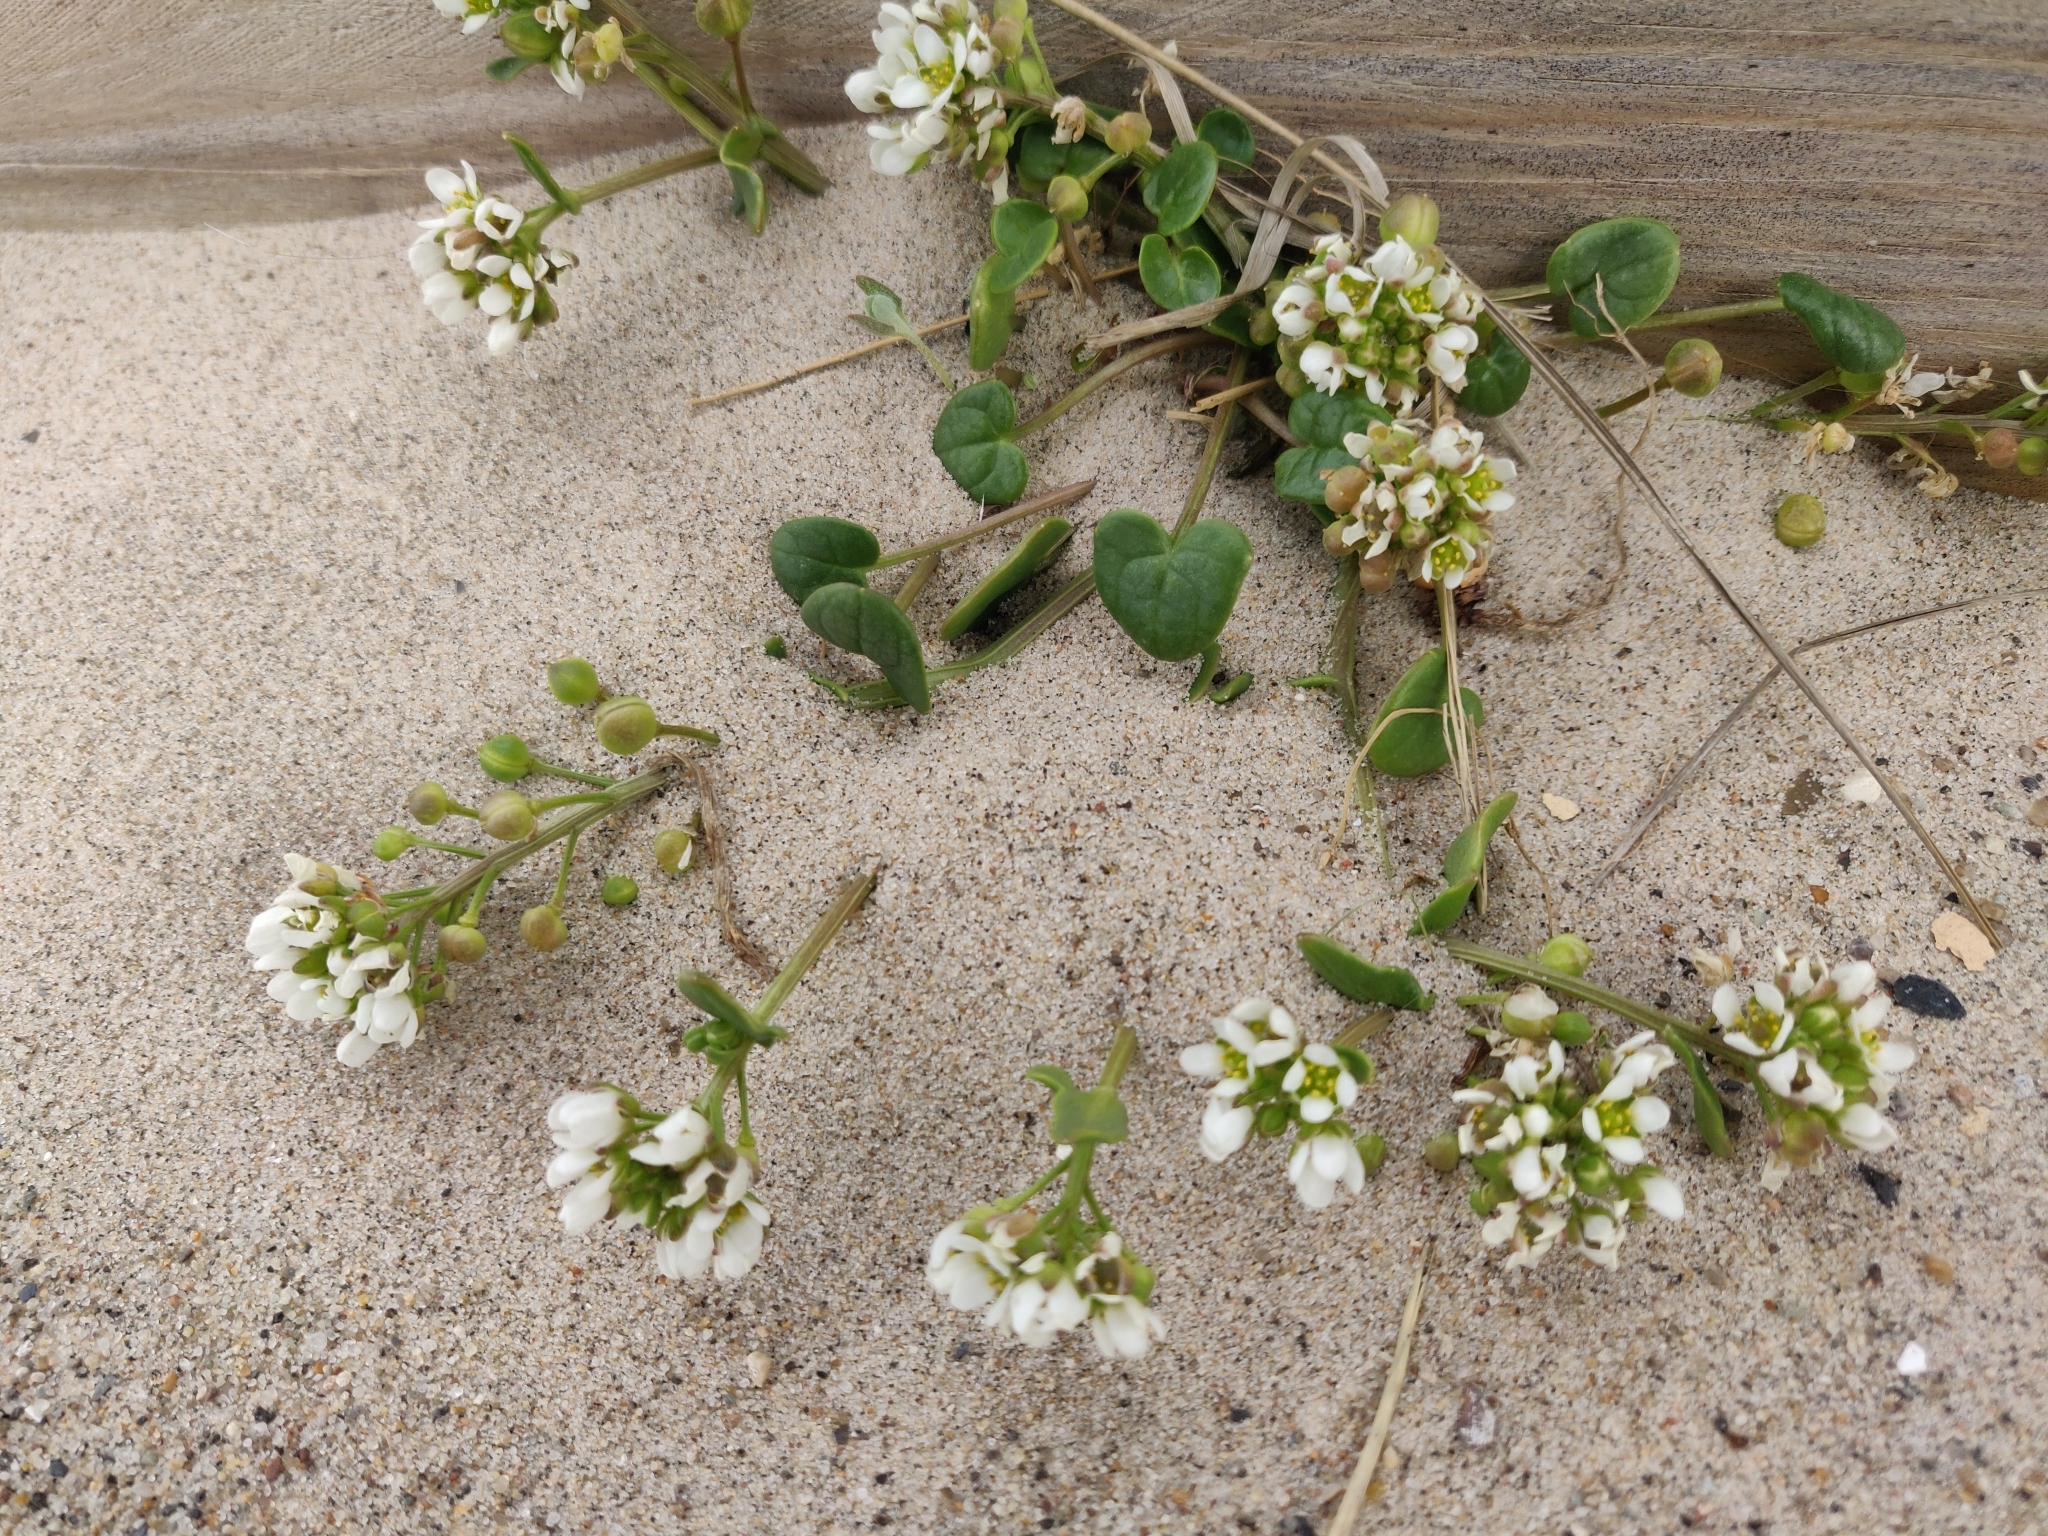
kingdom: Plantae
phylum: Tracheophyta
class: Magnoliopsida
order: Brassicales
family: Brassicaceae
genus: Cochlearia
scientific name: Cochlearia officinalis
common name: Scurvy-grass
